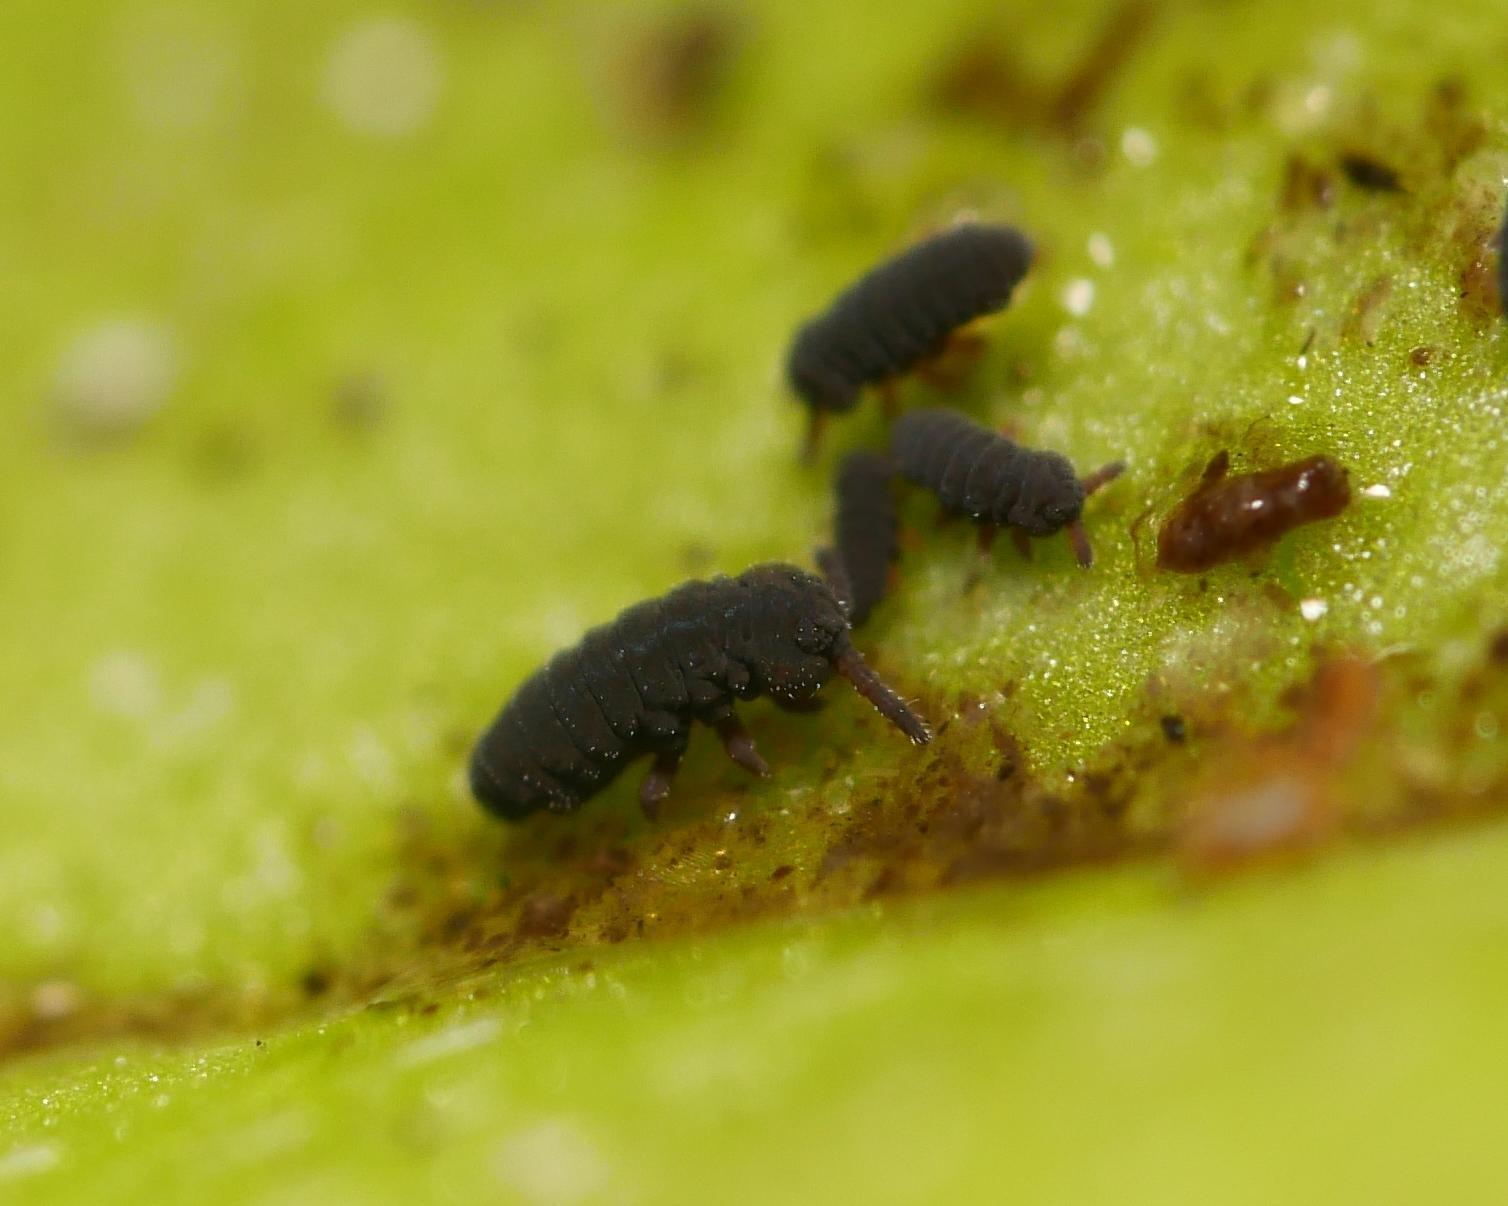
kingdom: Animalia
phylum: Arthropoda
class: Collembola
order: Poduromorpha
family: Poduridae
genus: Podura
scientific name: Podura aquatica
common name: Water springtail
